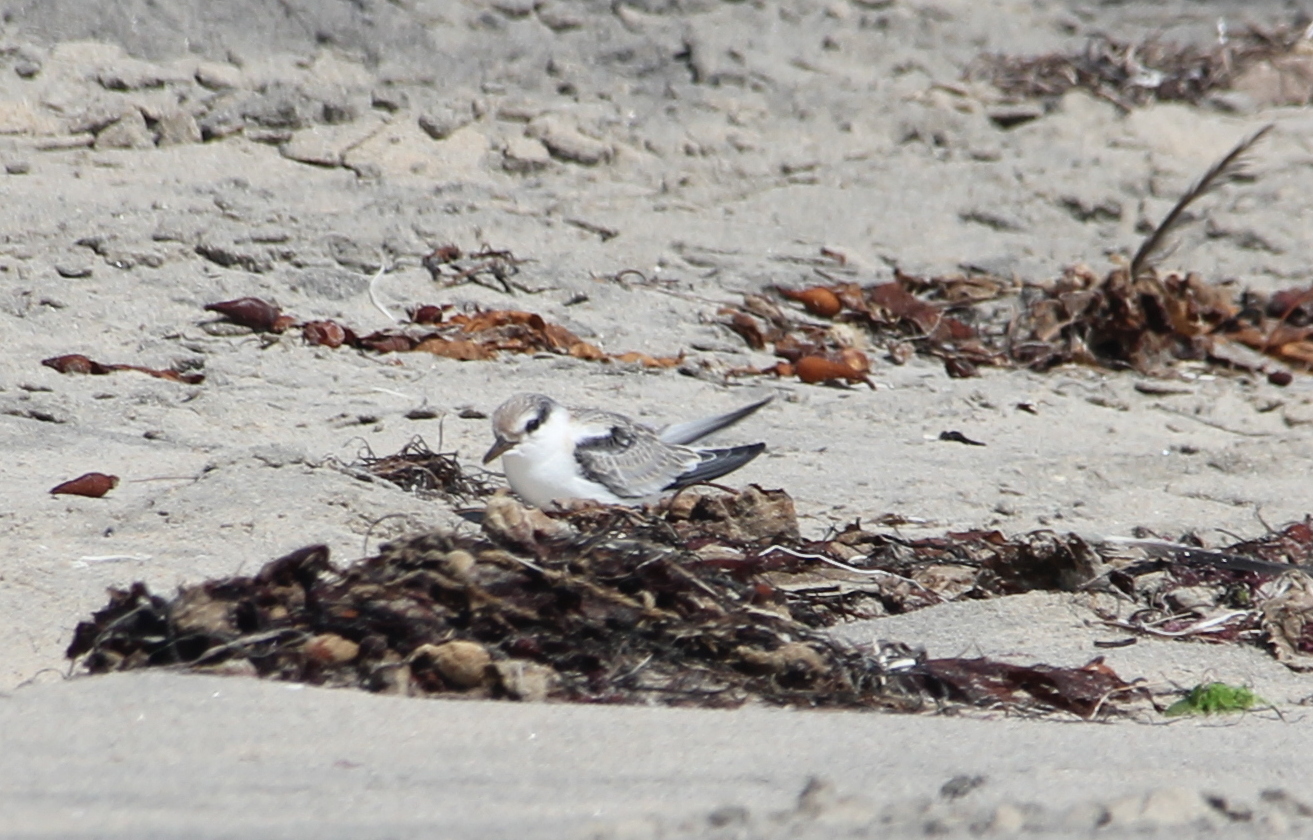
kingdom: Animalia
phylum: Chordata
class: Aves
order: Charadriiformes
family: Laridae
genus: Sternula
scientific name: Sternula antillarum
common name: Least tern
